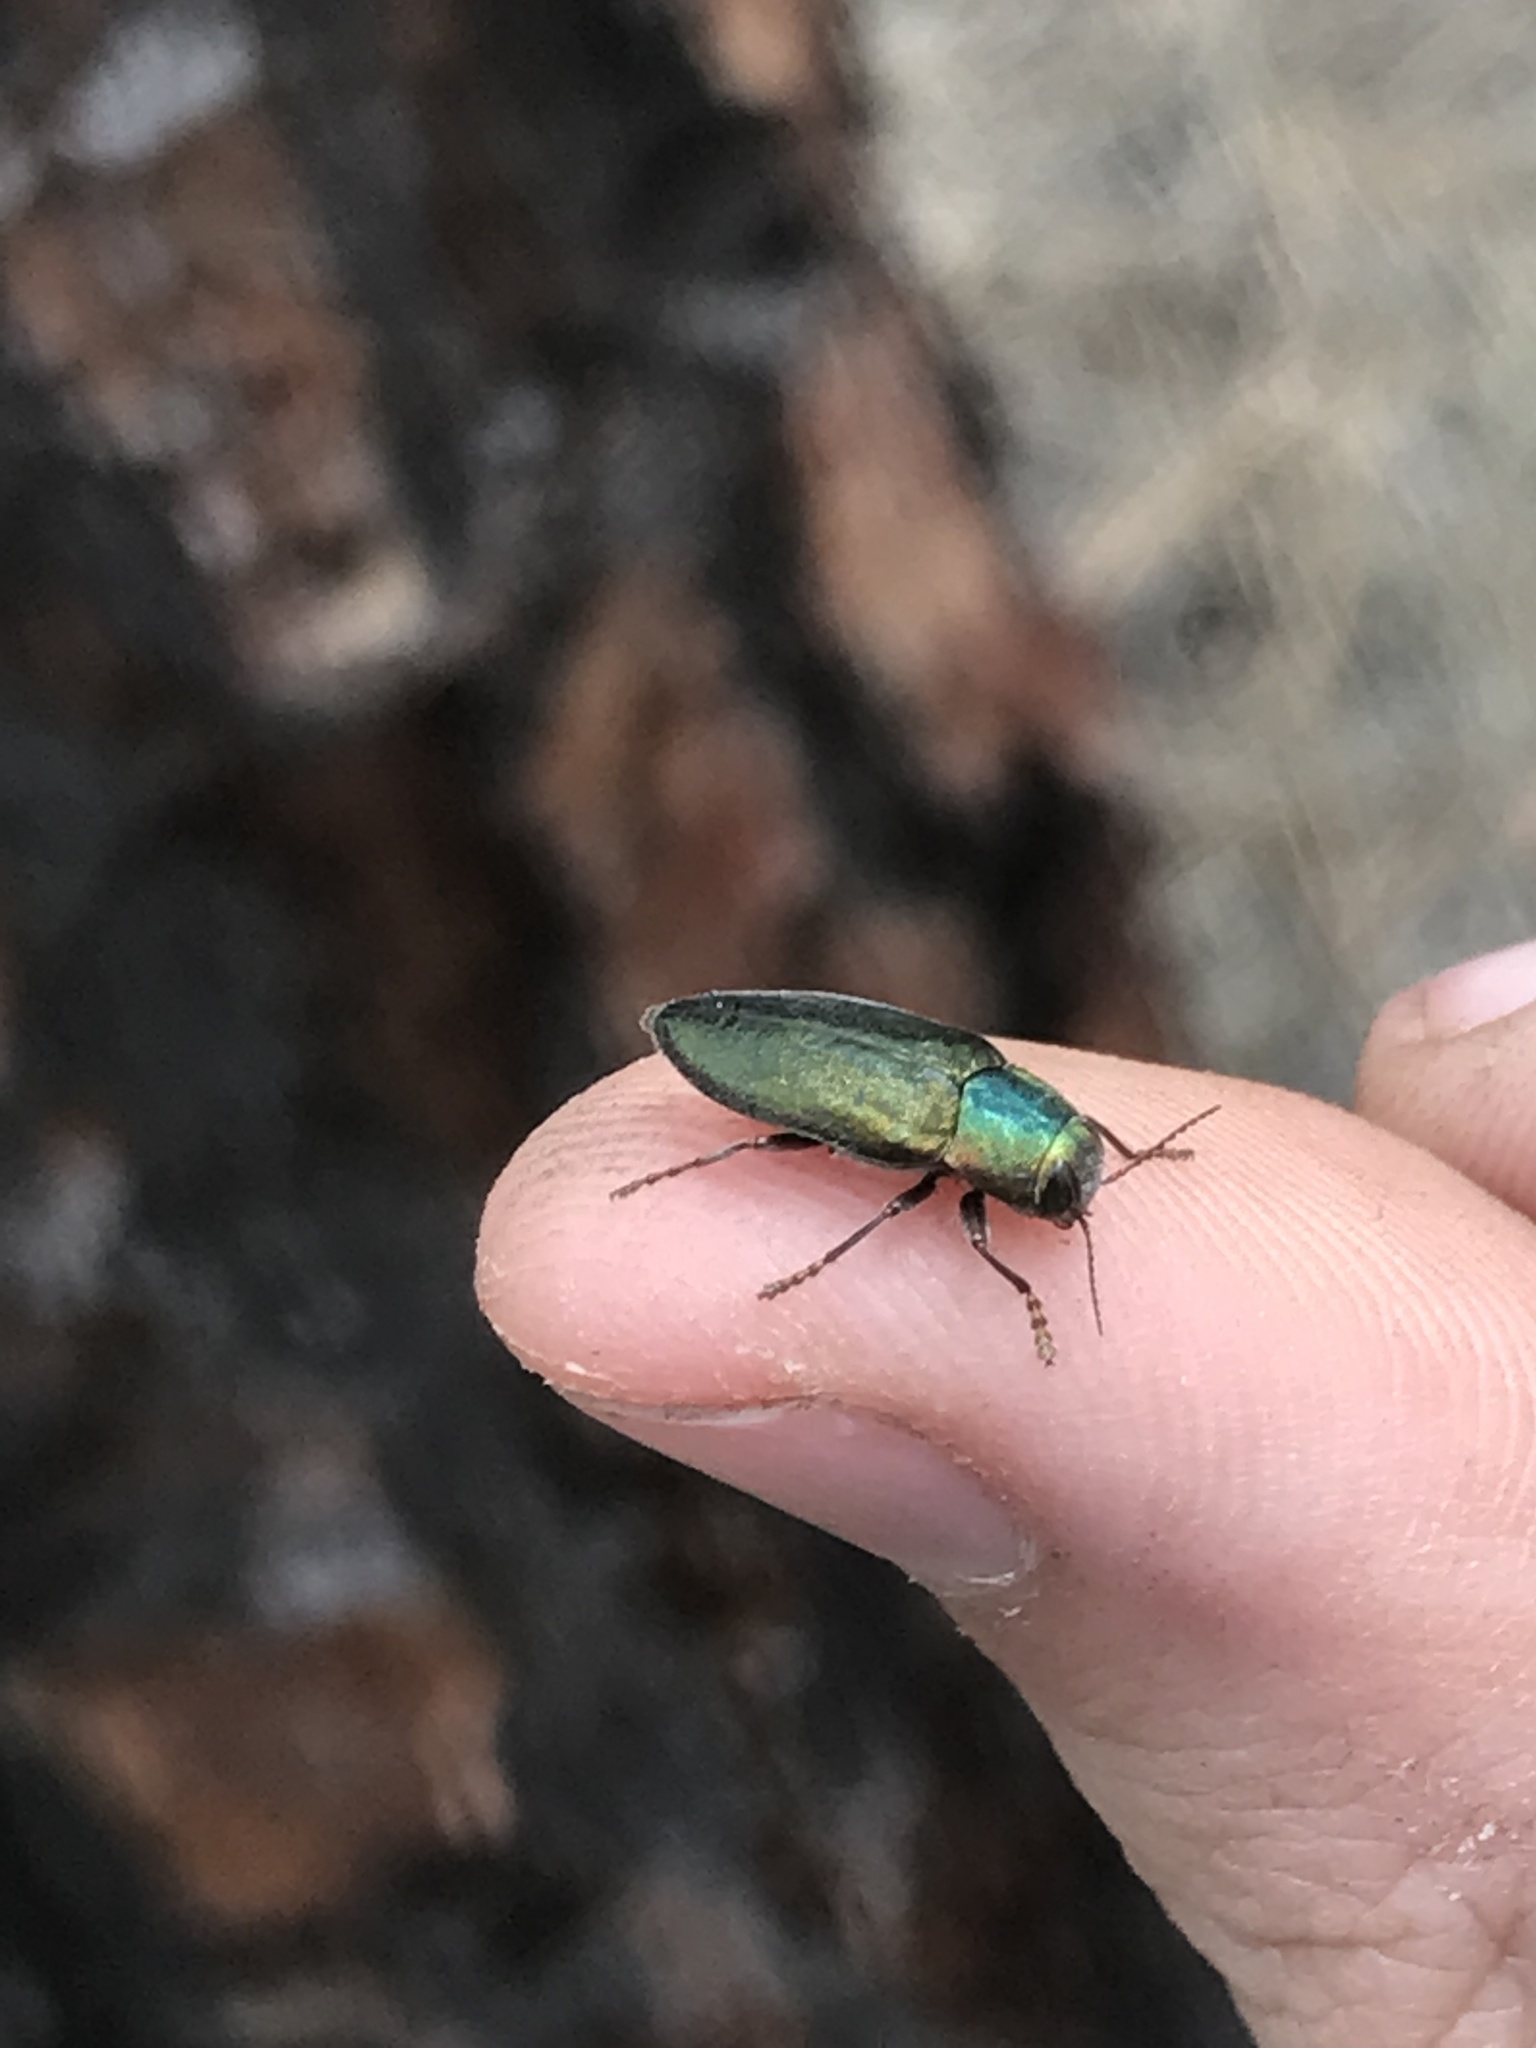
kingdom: Animalia
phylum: Arthropoda
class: Insecta
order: Coleoptera
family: Buprestidae
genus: Phaenops
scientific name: Phaenops gentilis
